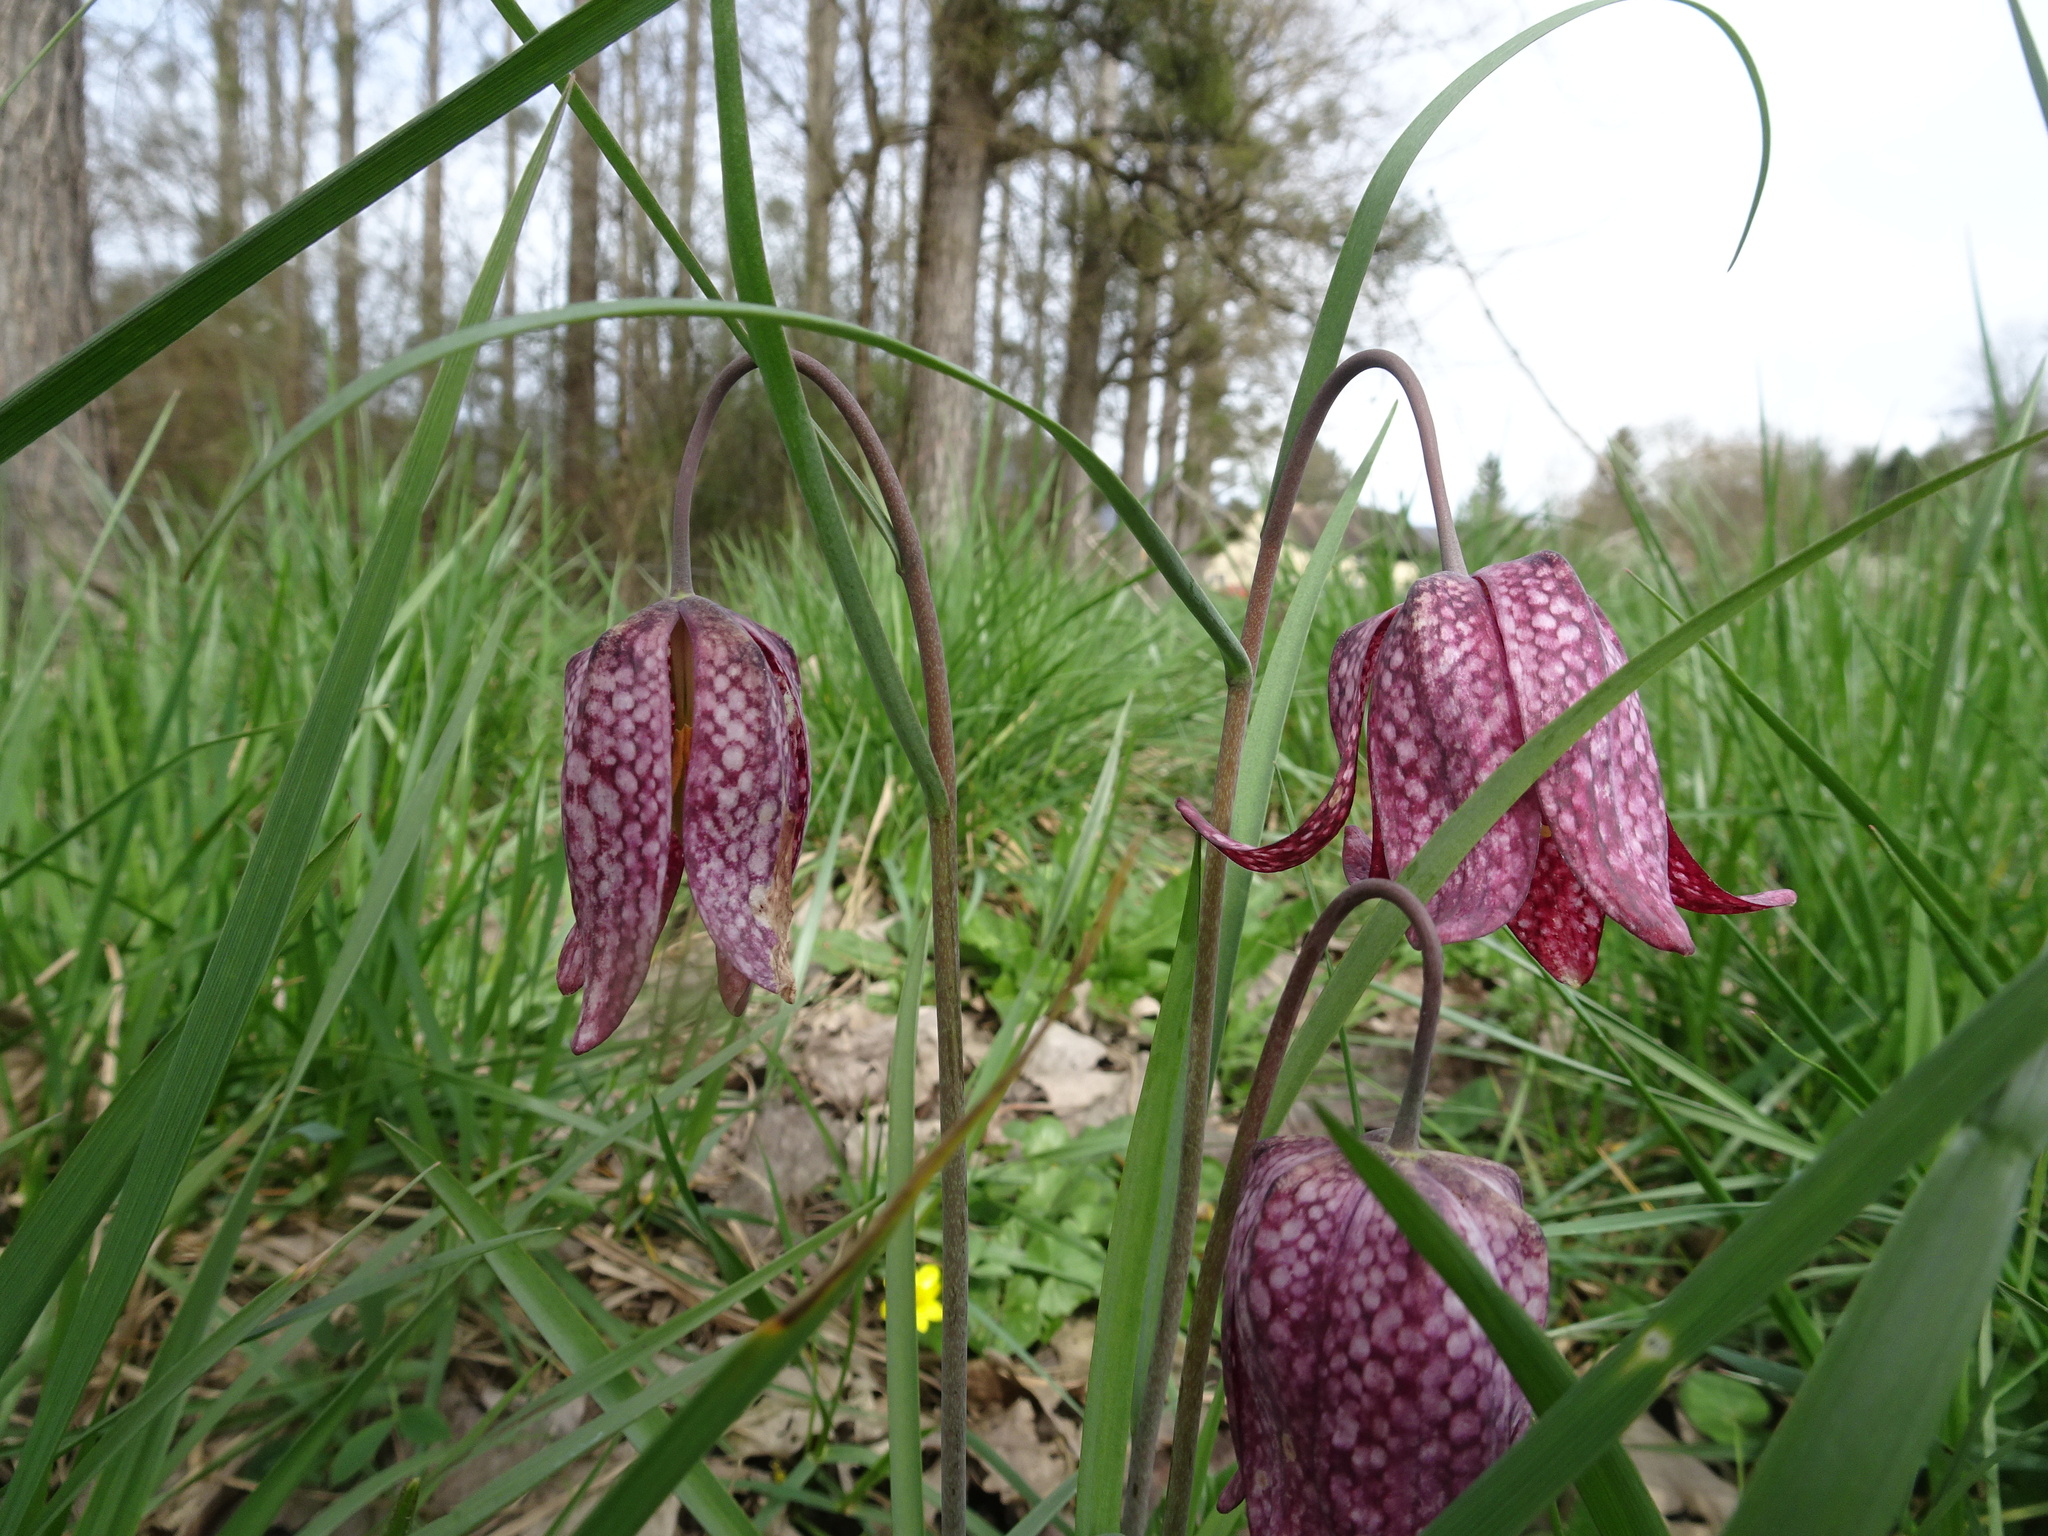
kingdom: Plantae
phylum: Tracheophyta
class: Liliopsida
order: Liliales
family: Liliaceae
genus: Fritillaria
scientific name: Fritillaria meleagris
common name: Fritillary
